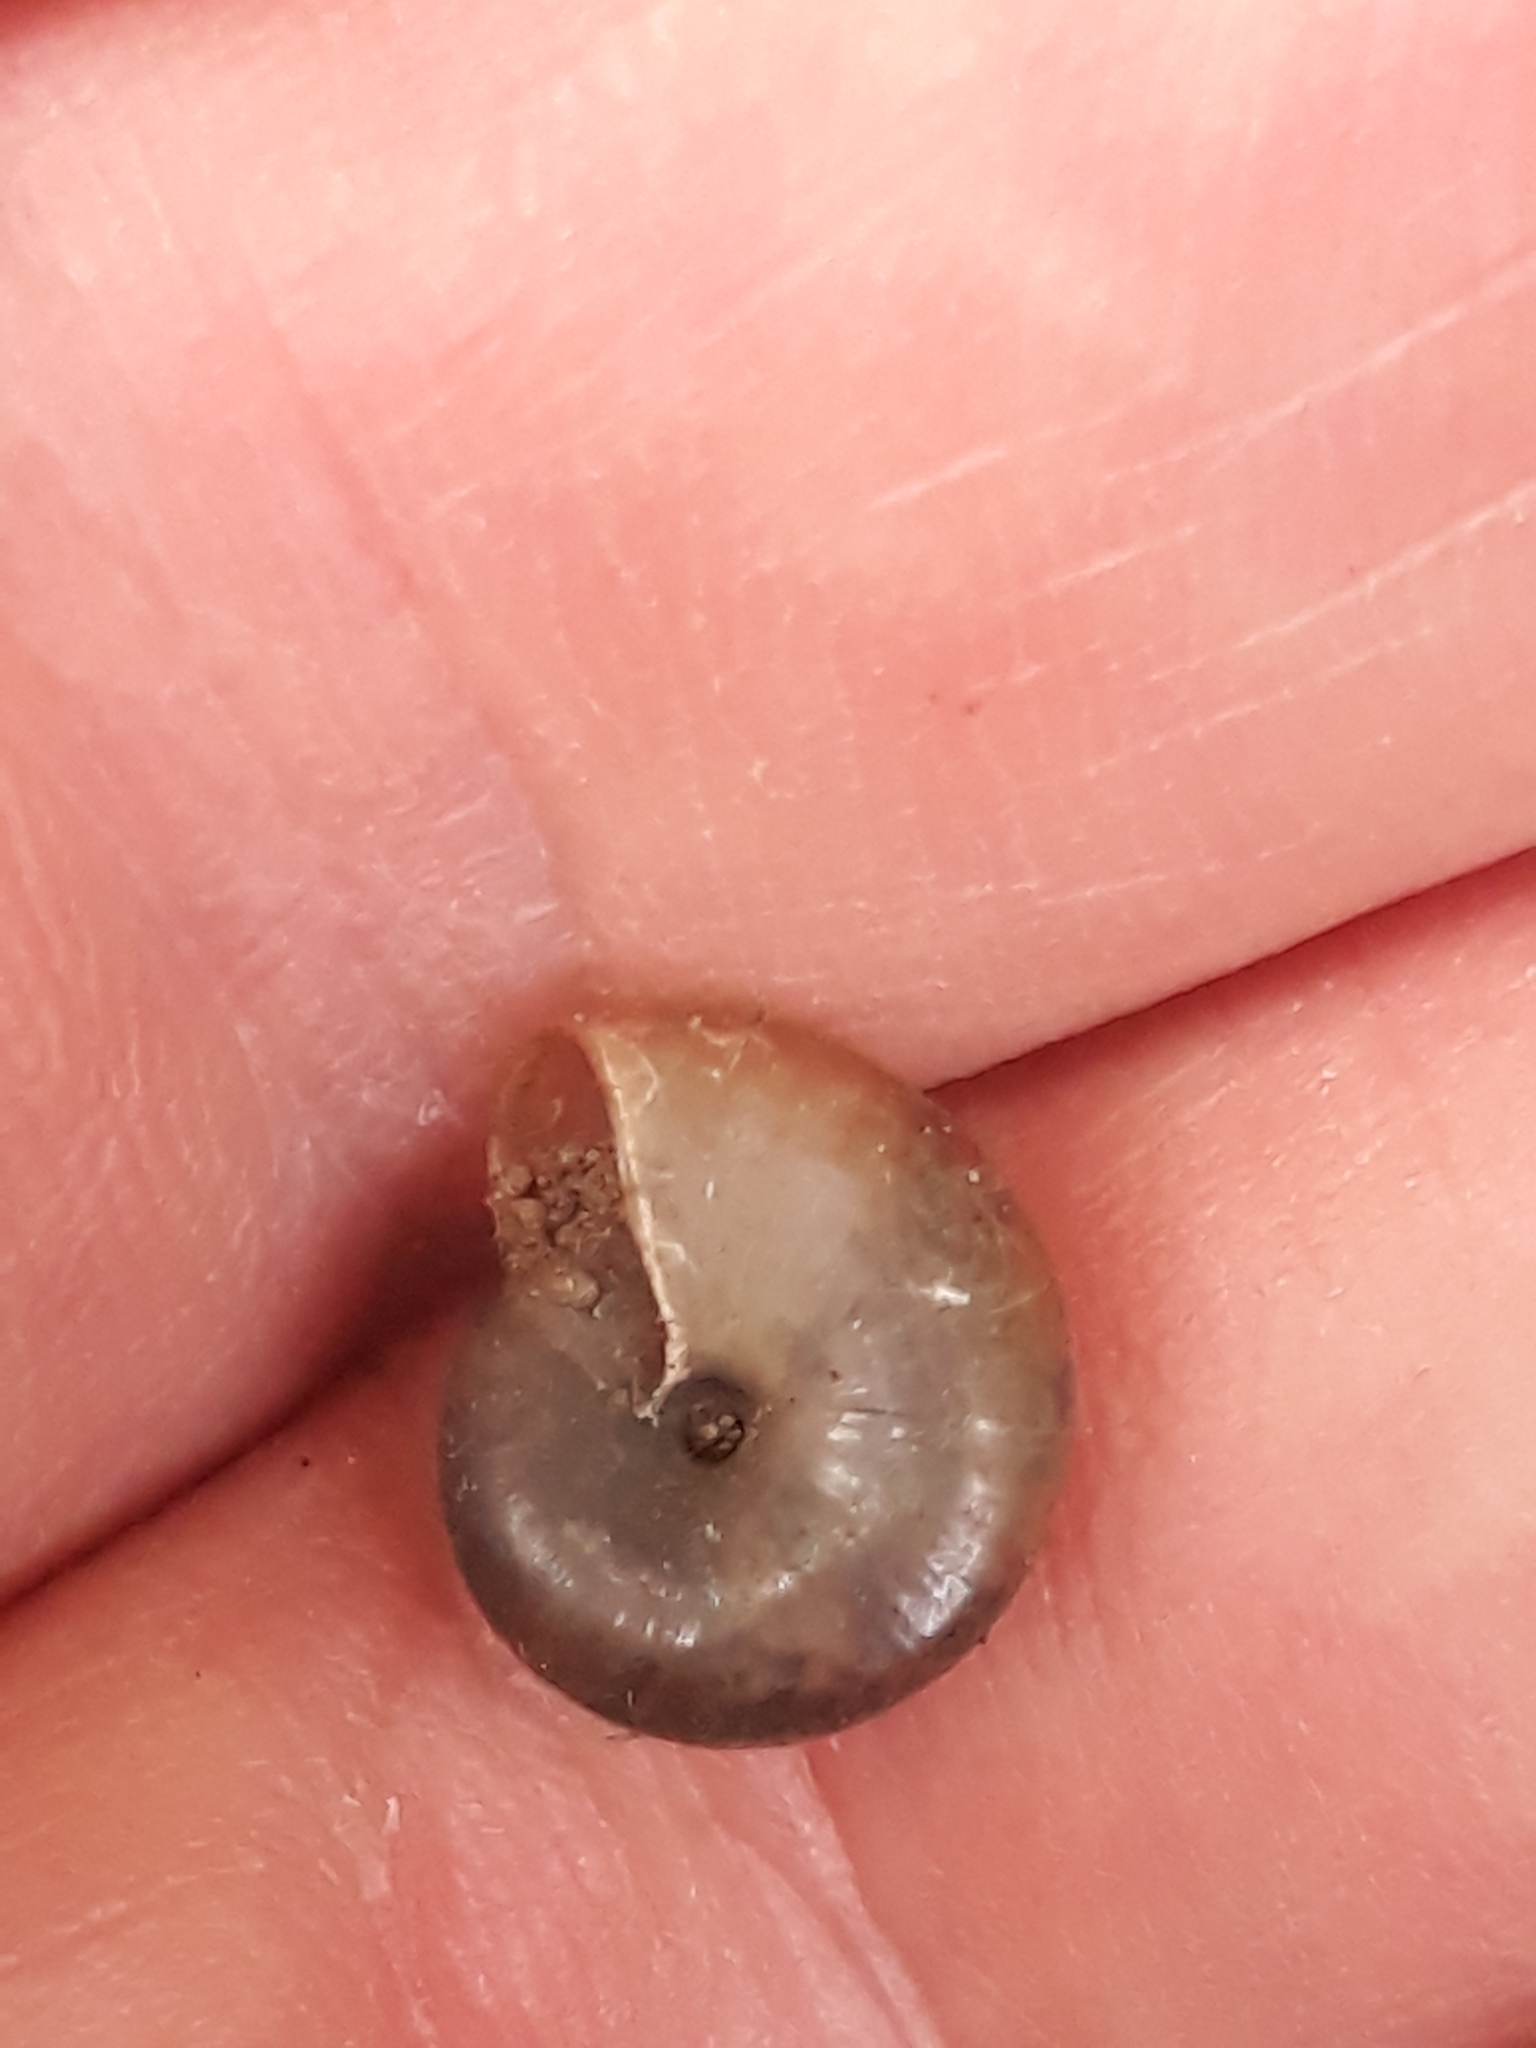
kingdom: Animalia
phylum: Mollusca
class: Gastropoda
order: Stylommatophora
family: Oxychilidae
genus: Oxychilus
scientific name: Oxychilus draparnaudi
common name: Draparnaud's glass snail
